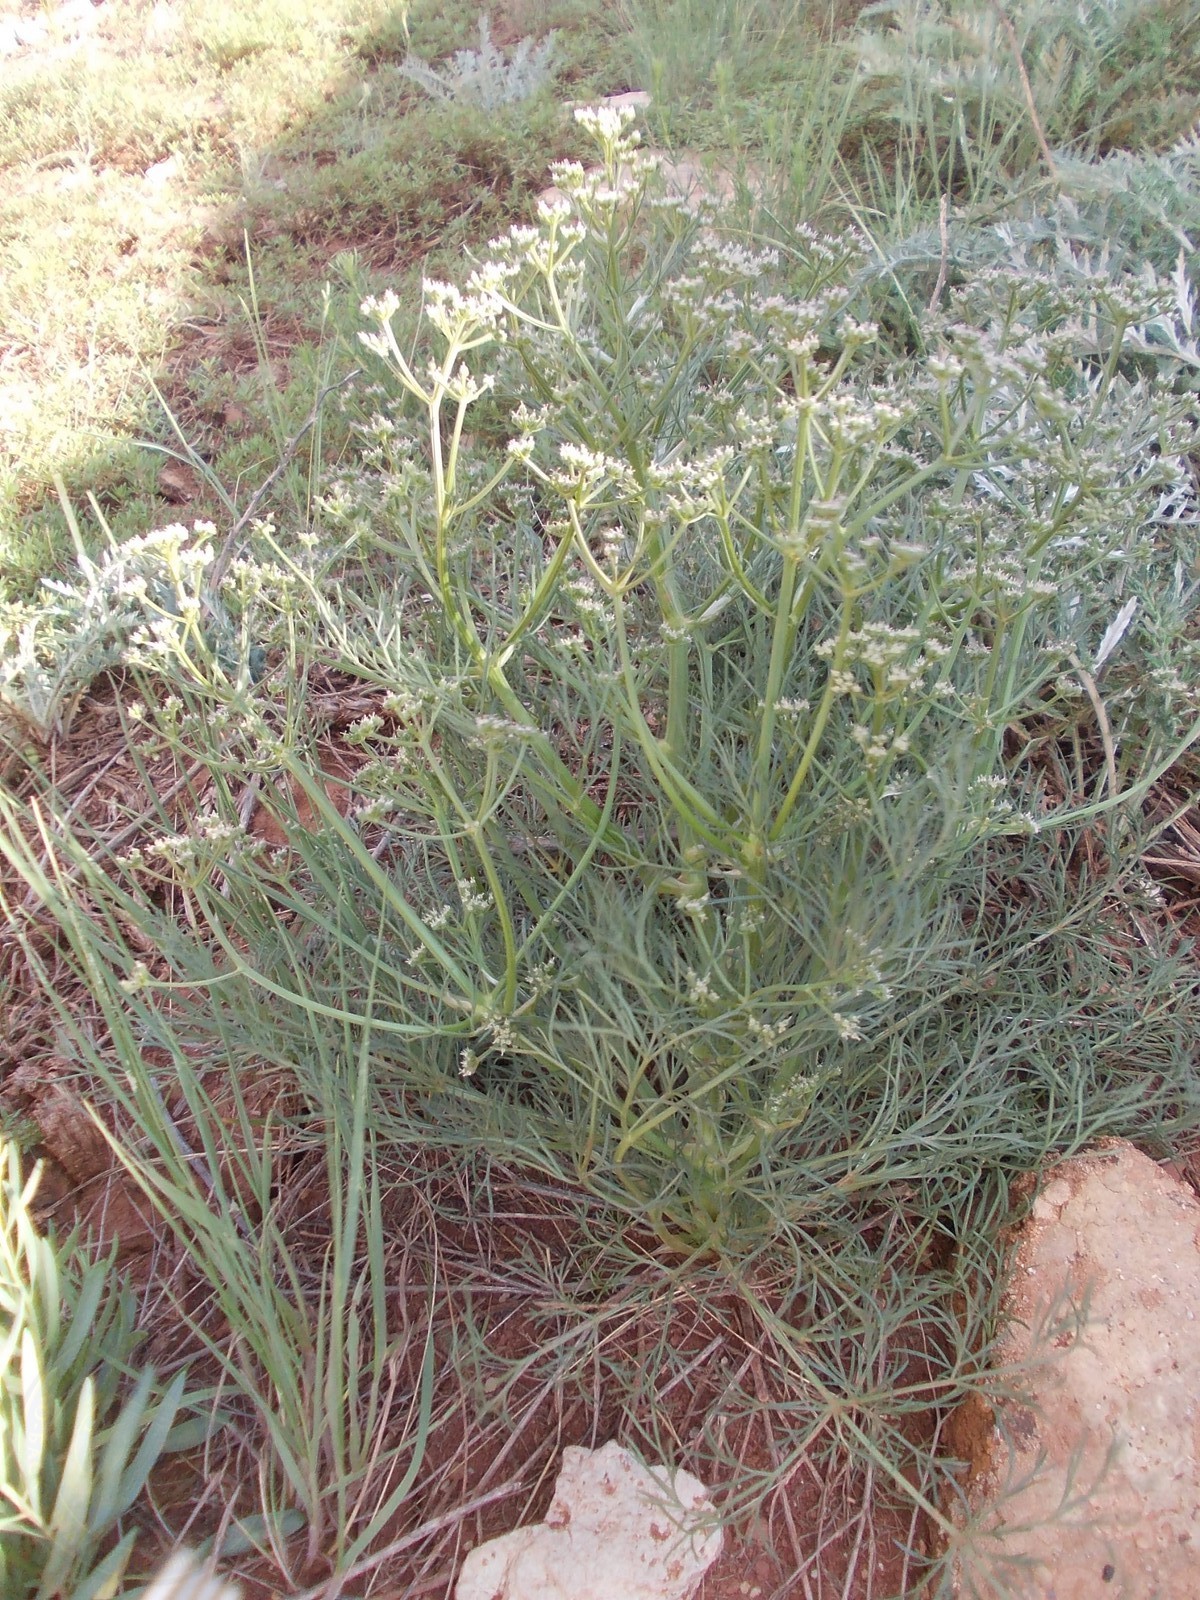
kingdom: Plantae
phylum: Tracheophyta
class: Magnoliopsida
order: Apiales
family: Apiaceae
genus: Trinia
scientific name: Trinia hispida
